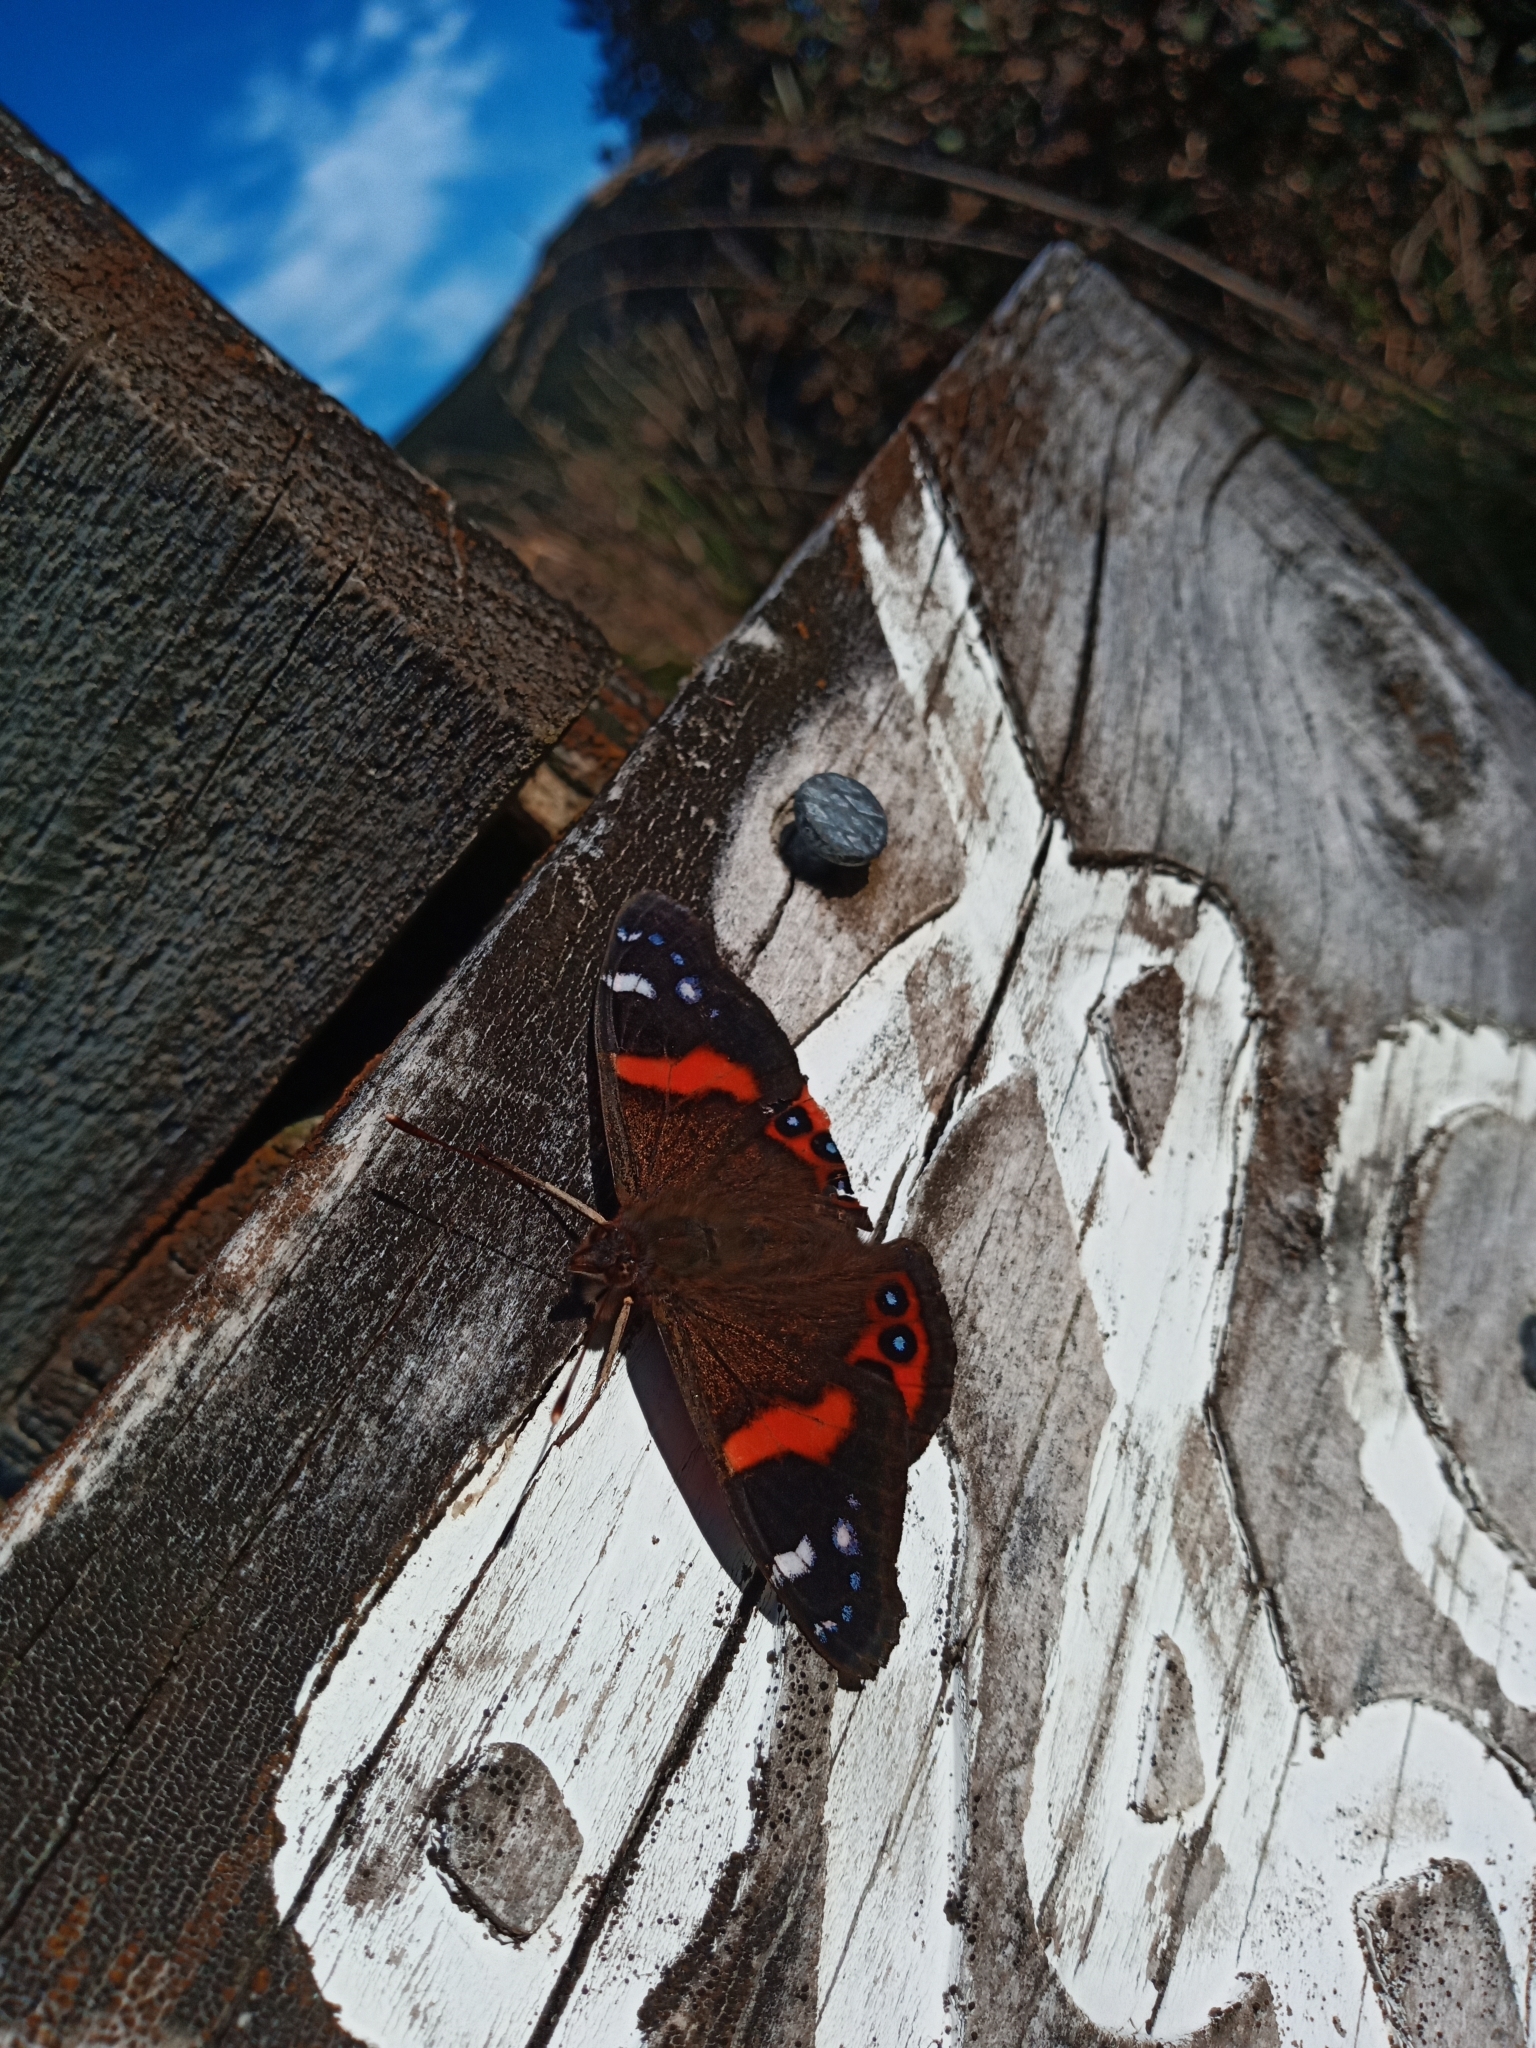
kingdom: Animalia
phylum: Arthropoda
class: Insecta
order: Lepidoptera
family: Nymphalidae
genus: Vanessa
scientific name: Vanessa gonerilla
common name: New zealand red admiral
